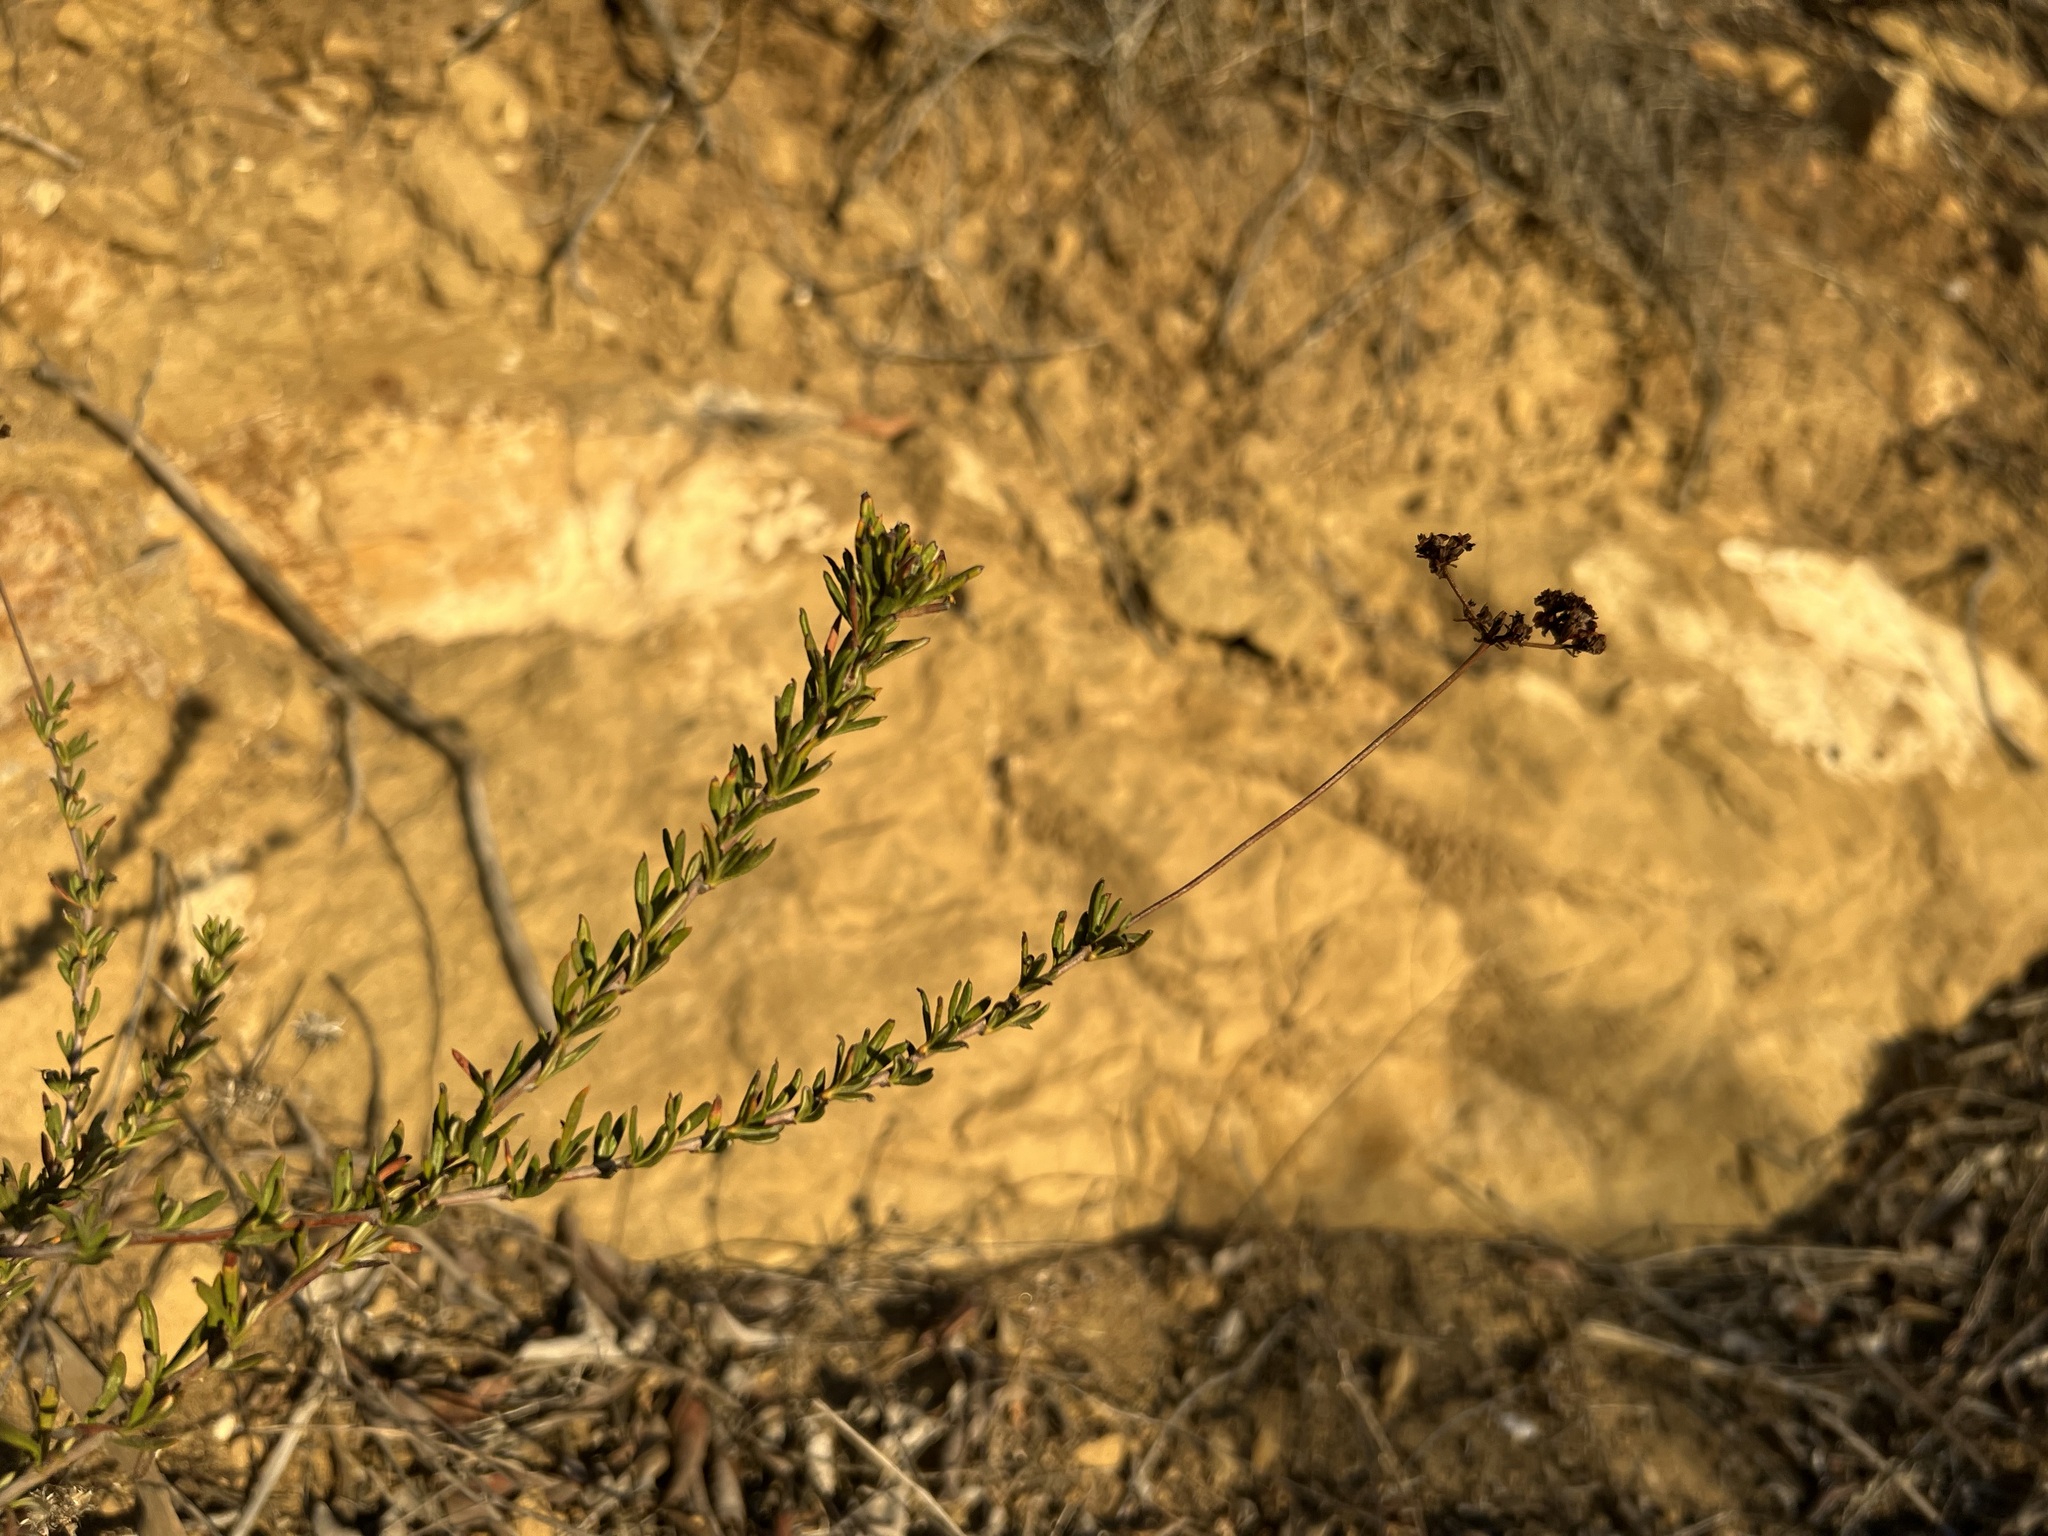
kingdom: Plantae
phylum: Tracheophyta
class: Magnoliopsida
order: Caryophyllales
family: Polygonaceae
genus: Eriogonum
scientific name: Eriogonum fasciculatum
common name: California wild buckwheat
